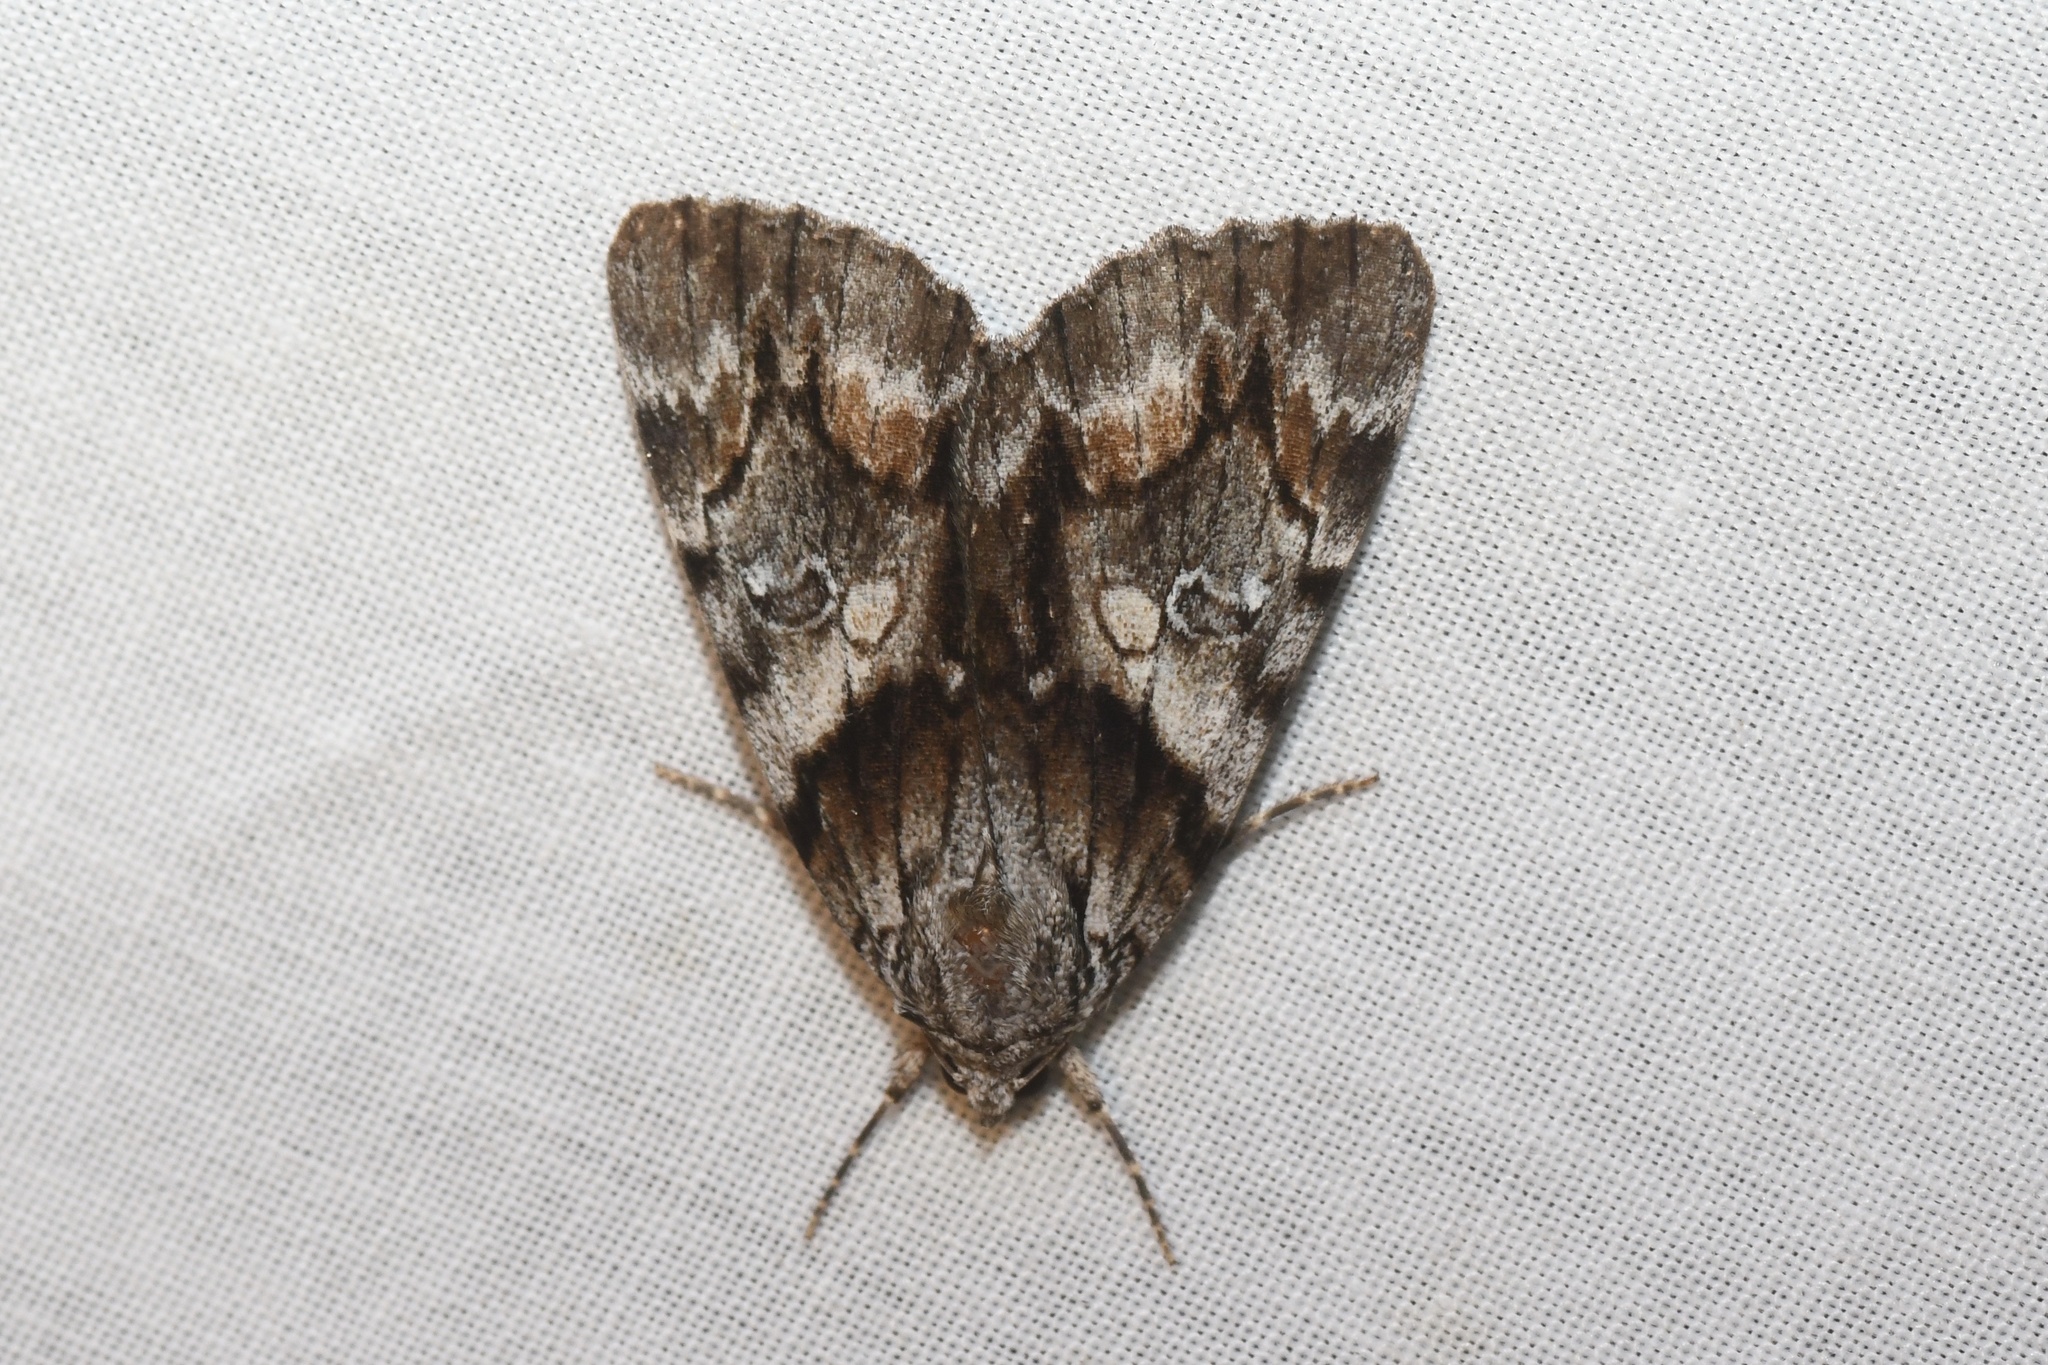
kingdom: Animalia
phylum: Arthropoda
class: Insecta
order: Lepidoptera
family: Erebidae
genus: Catocala
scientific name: Catocala blandula
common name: Charming underwing
